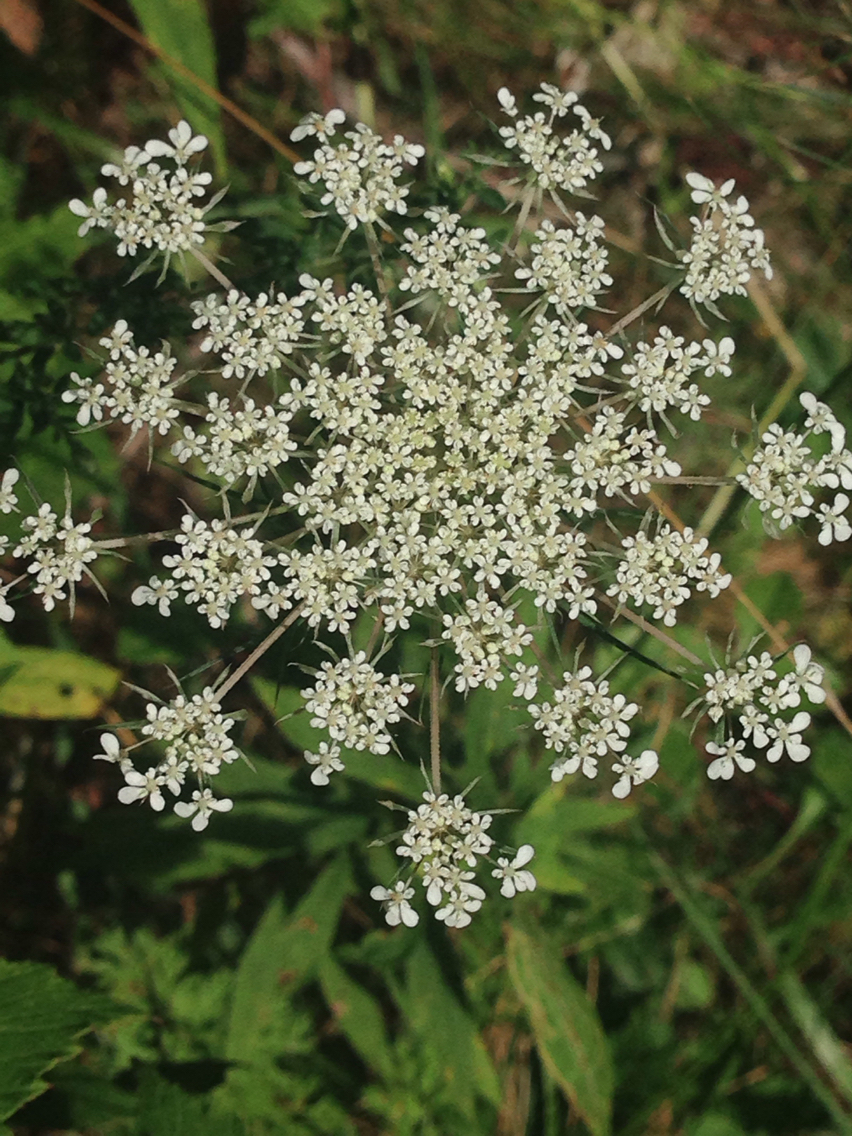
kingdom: Plantae
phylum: Tracheophyta
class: Magnoliopsida
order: Apiales
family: Apiaceae
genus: Daucus
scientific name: Daucus carota
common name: Wild carrot
